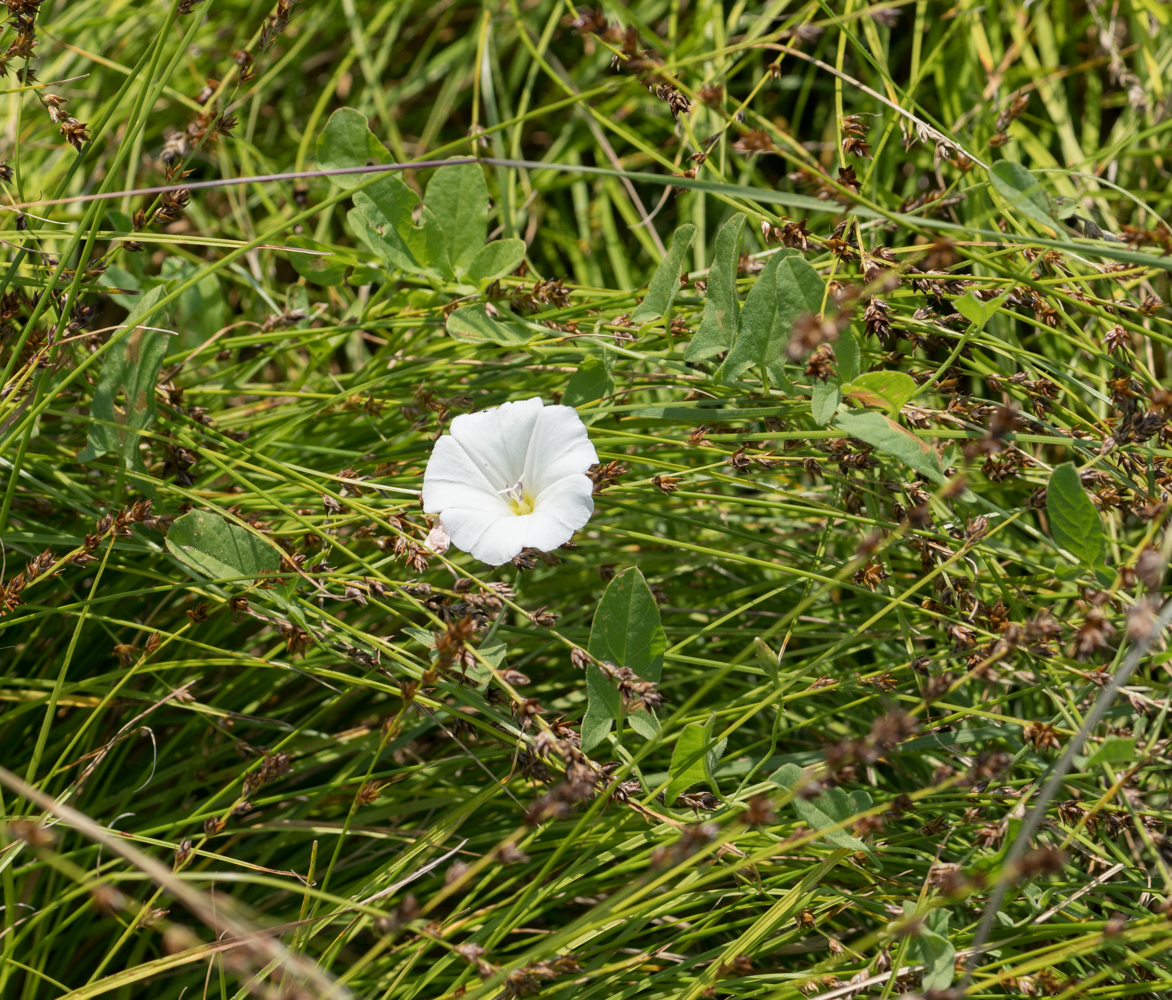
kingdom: Plantae
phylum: Tracheophyta
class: Magnoliopsida
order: Solanales
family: Convolvulaceae
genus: Convolvulus
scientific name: Convolvulus arvensis
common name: Field bindweed
